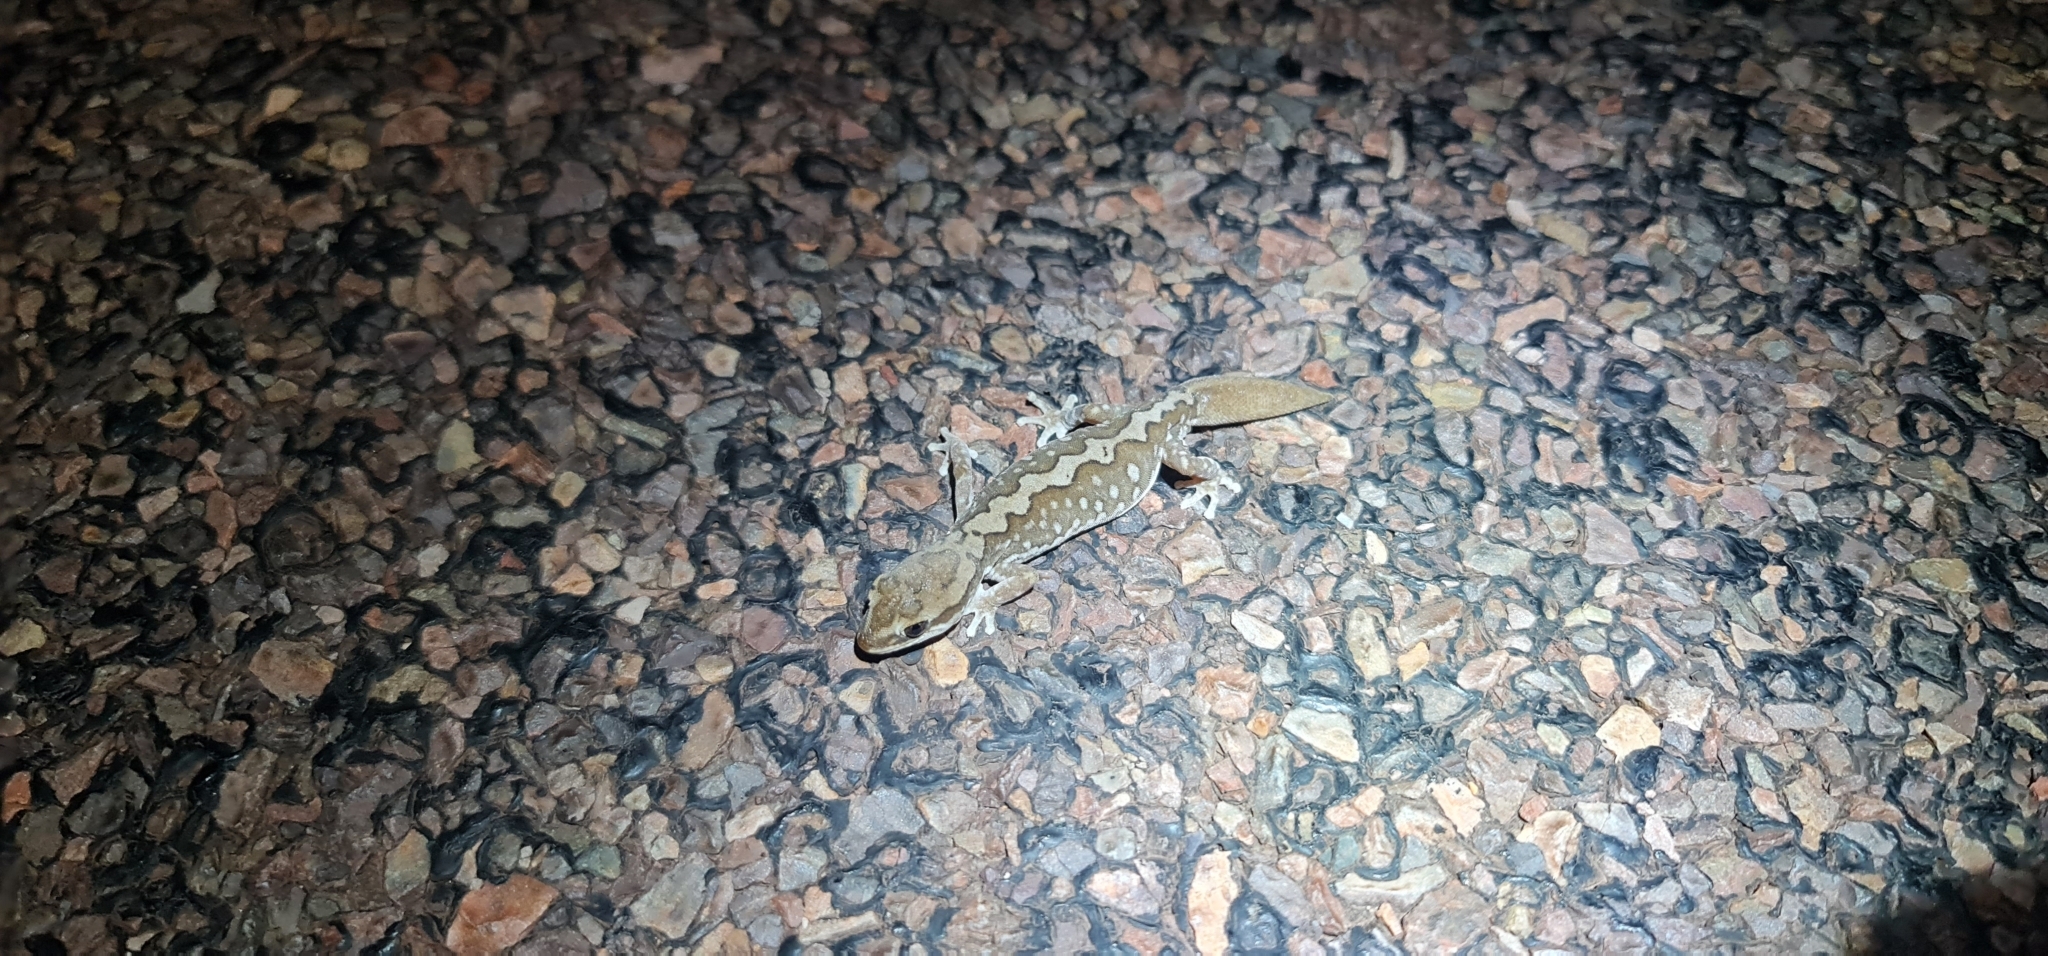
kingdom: Animalia
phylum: Chordata
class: Squamata
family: Diplodactylidae
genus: Diplodactylus
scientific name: Diplodactylus furcosus
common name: Ranges stone gecko
